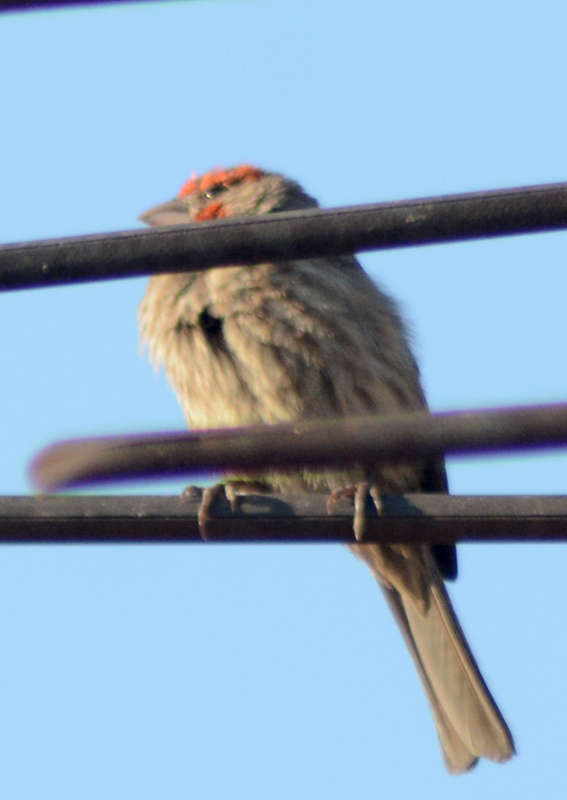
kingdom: Animalia
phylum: Chordata
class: Aves
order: Passeriformes
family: Fringillidae
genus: Haemorhous
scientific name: Haemorhous mexicanus
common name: House finch
